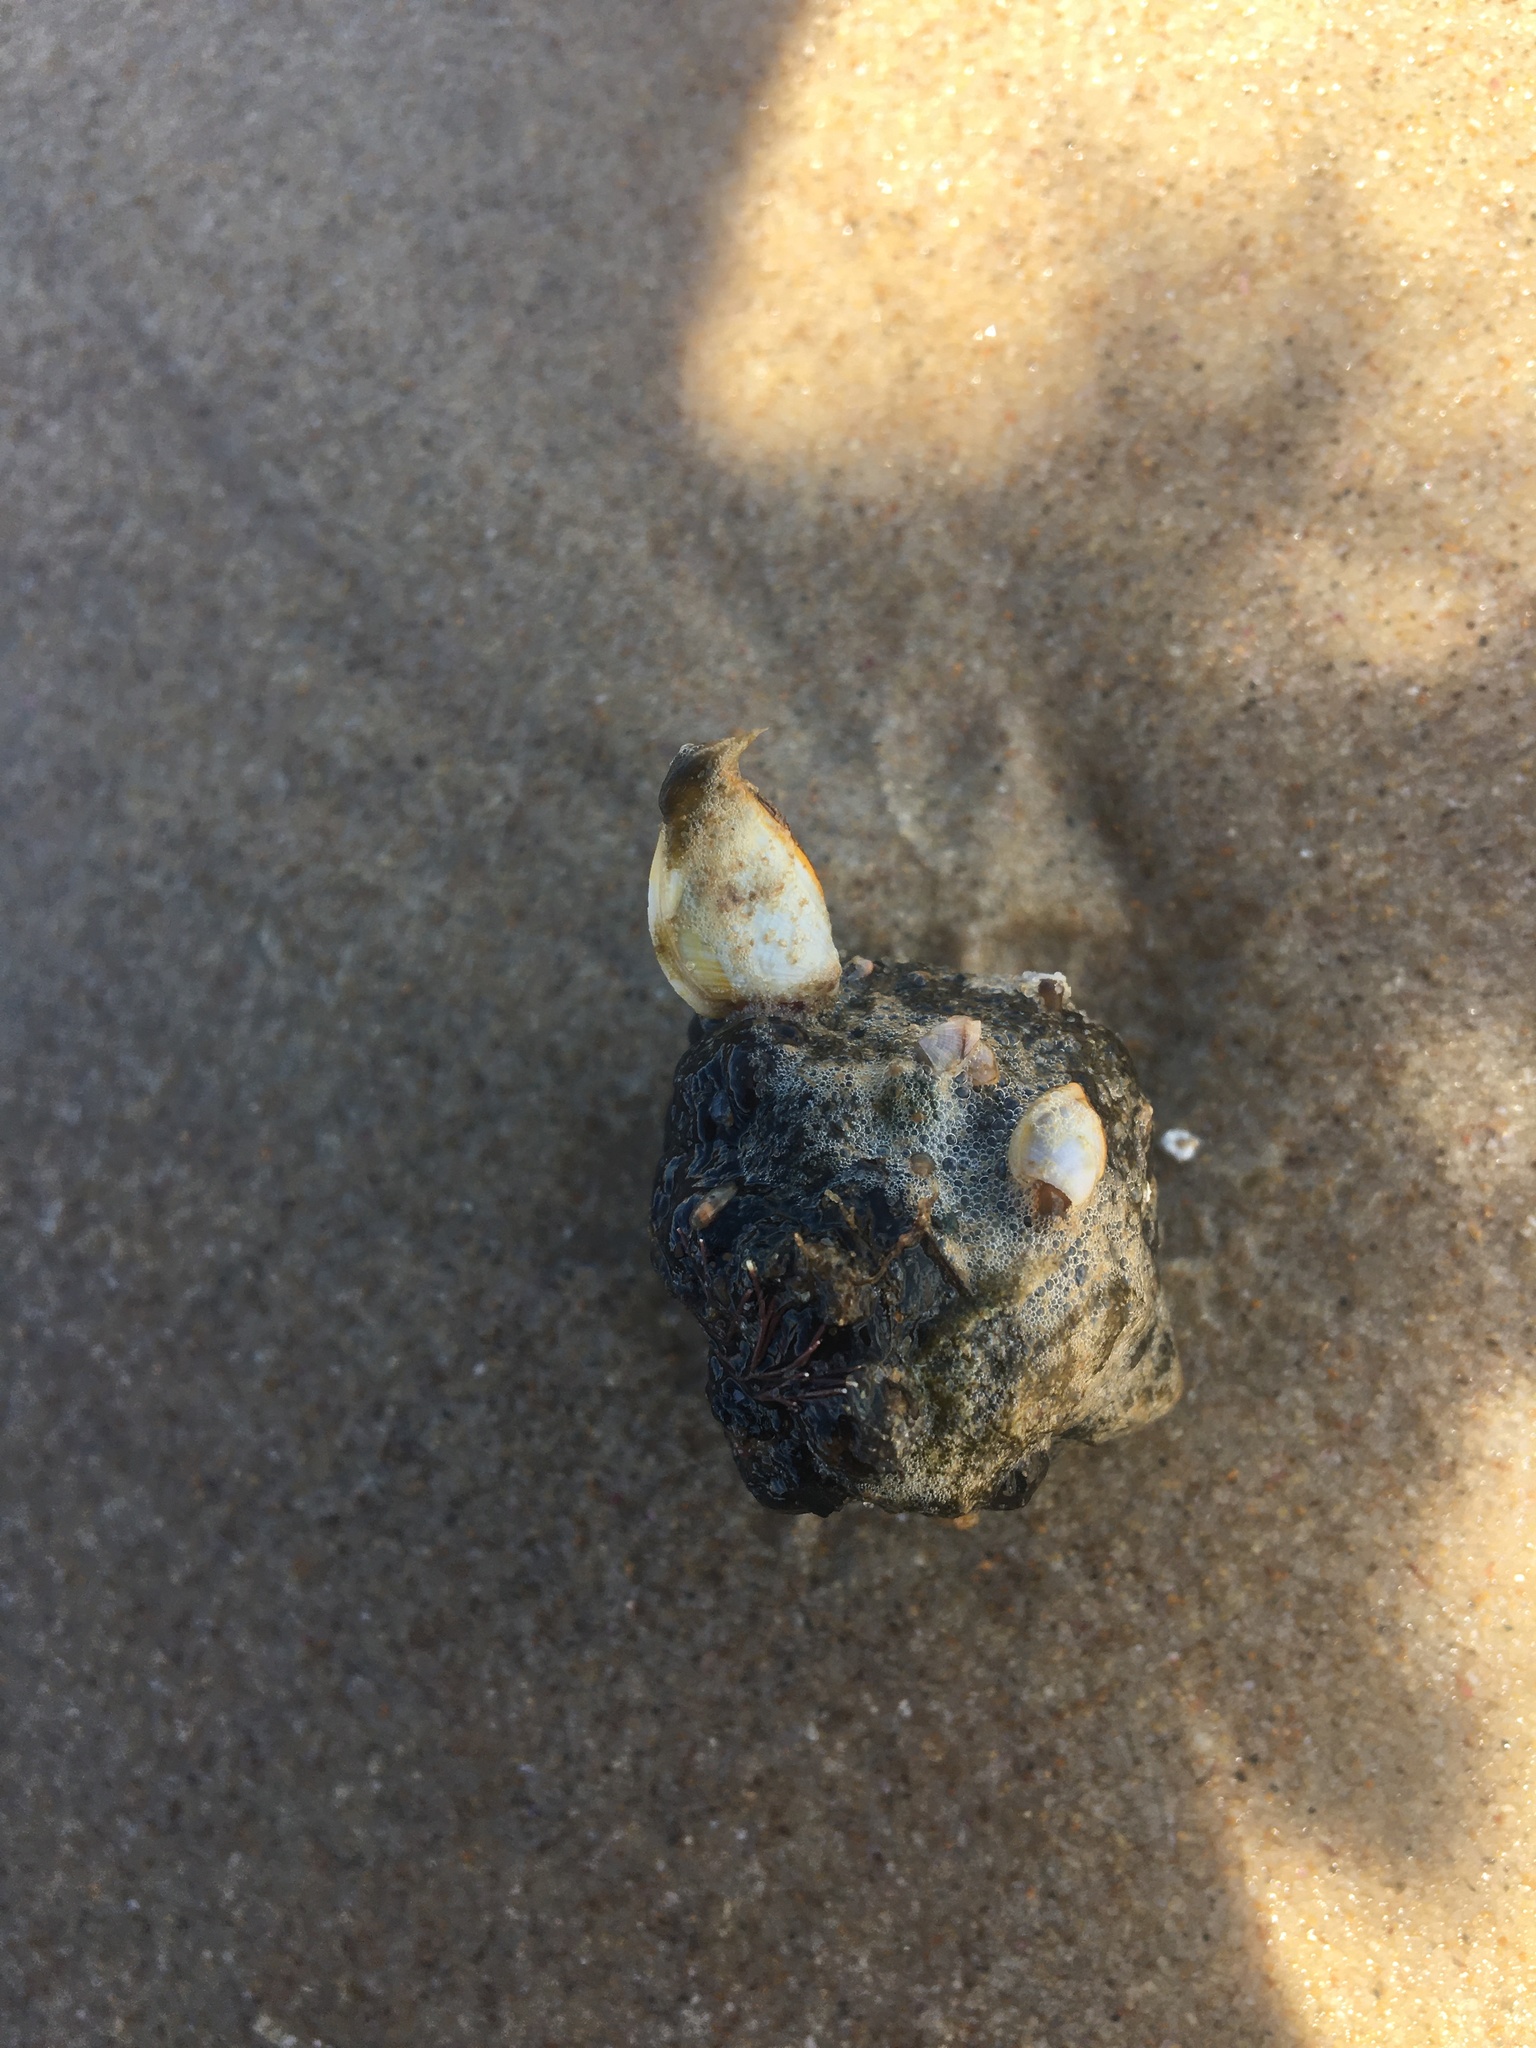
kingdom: Animalia
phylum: Arthropoda
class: Maxillopoda
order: Pedunculata
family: Lepadidae
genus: Lepas
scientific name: Lepas anserifera
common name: Goose barnacle
